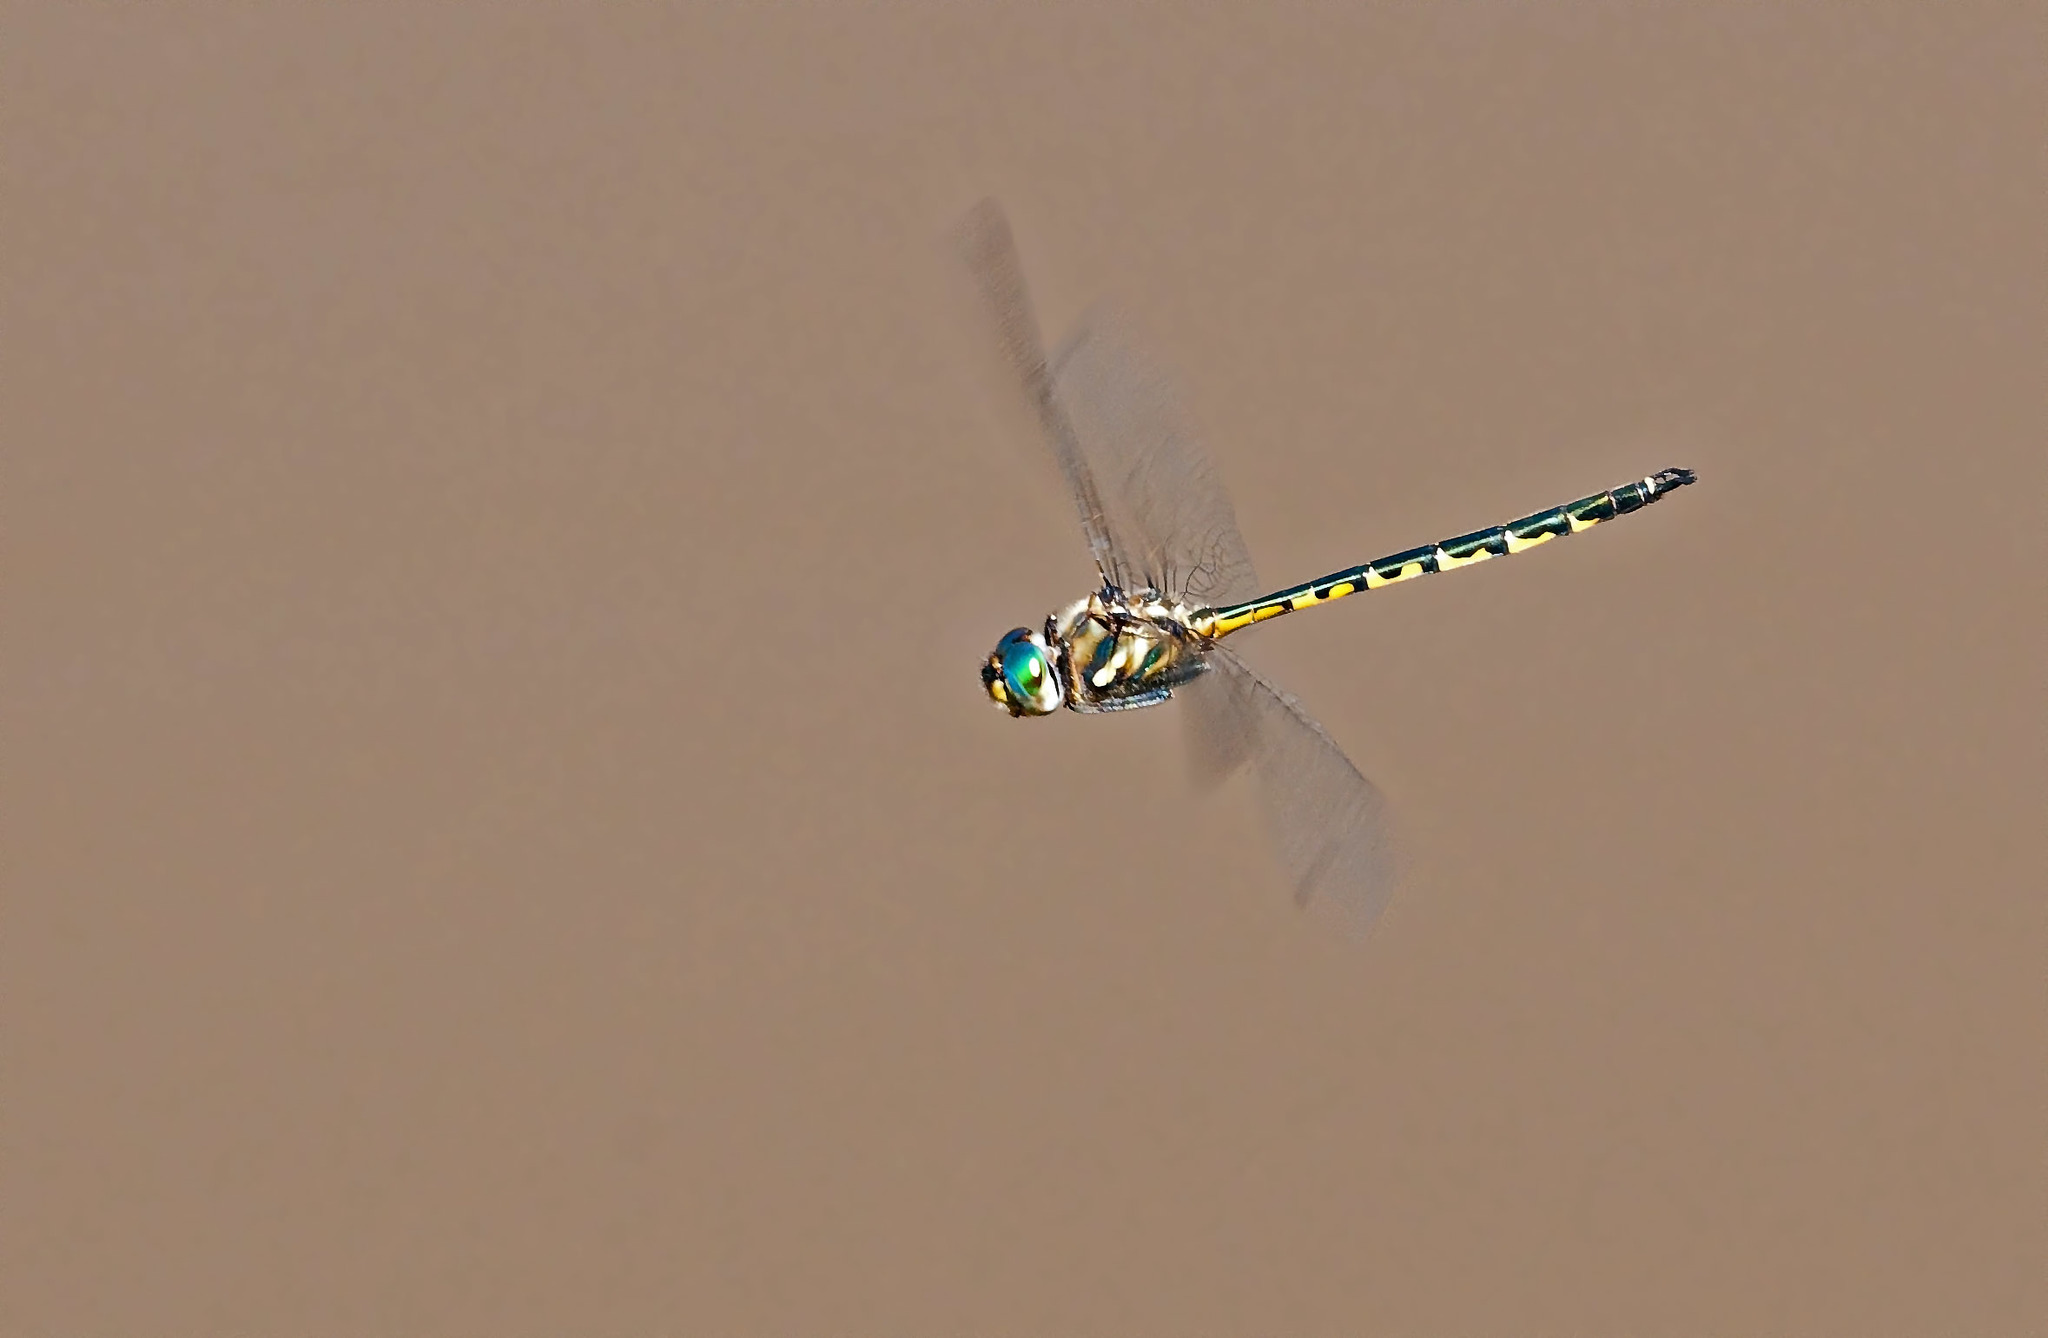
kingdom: Animalia
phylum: Arthropoda
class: Insecta
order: Odonata
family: Corduliidae
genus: Hemicordulia
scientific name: Hemicordulia australiae
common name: Sentry dragonfly
